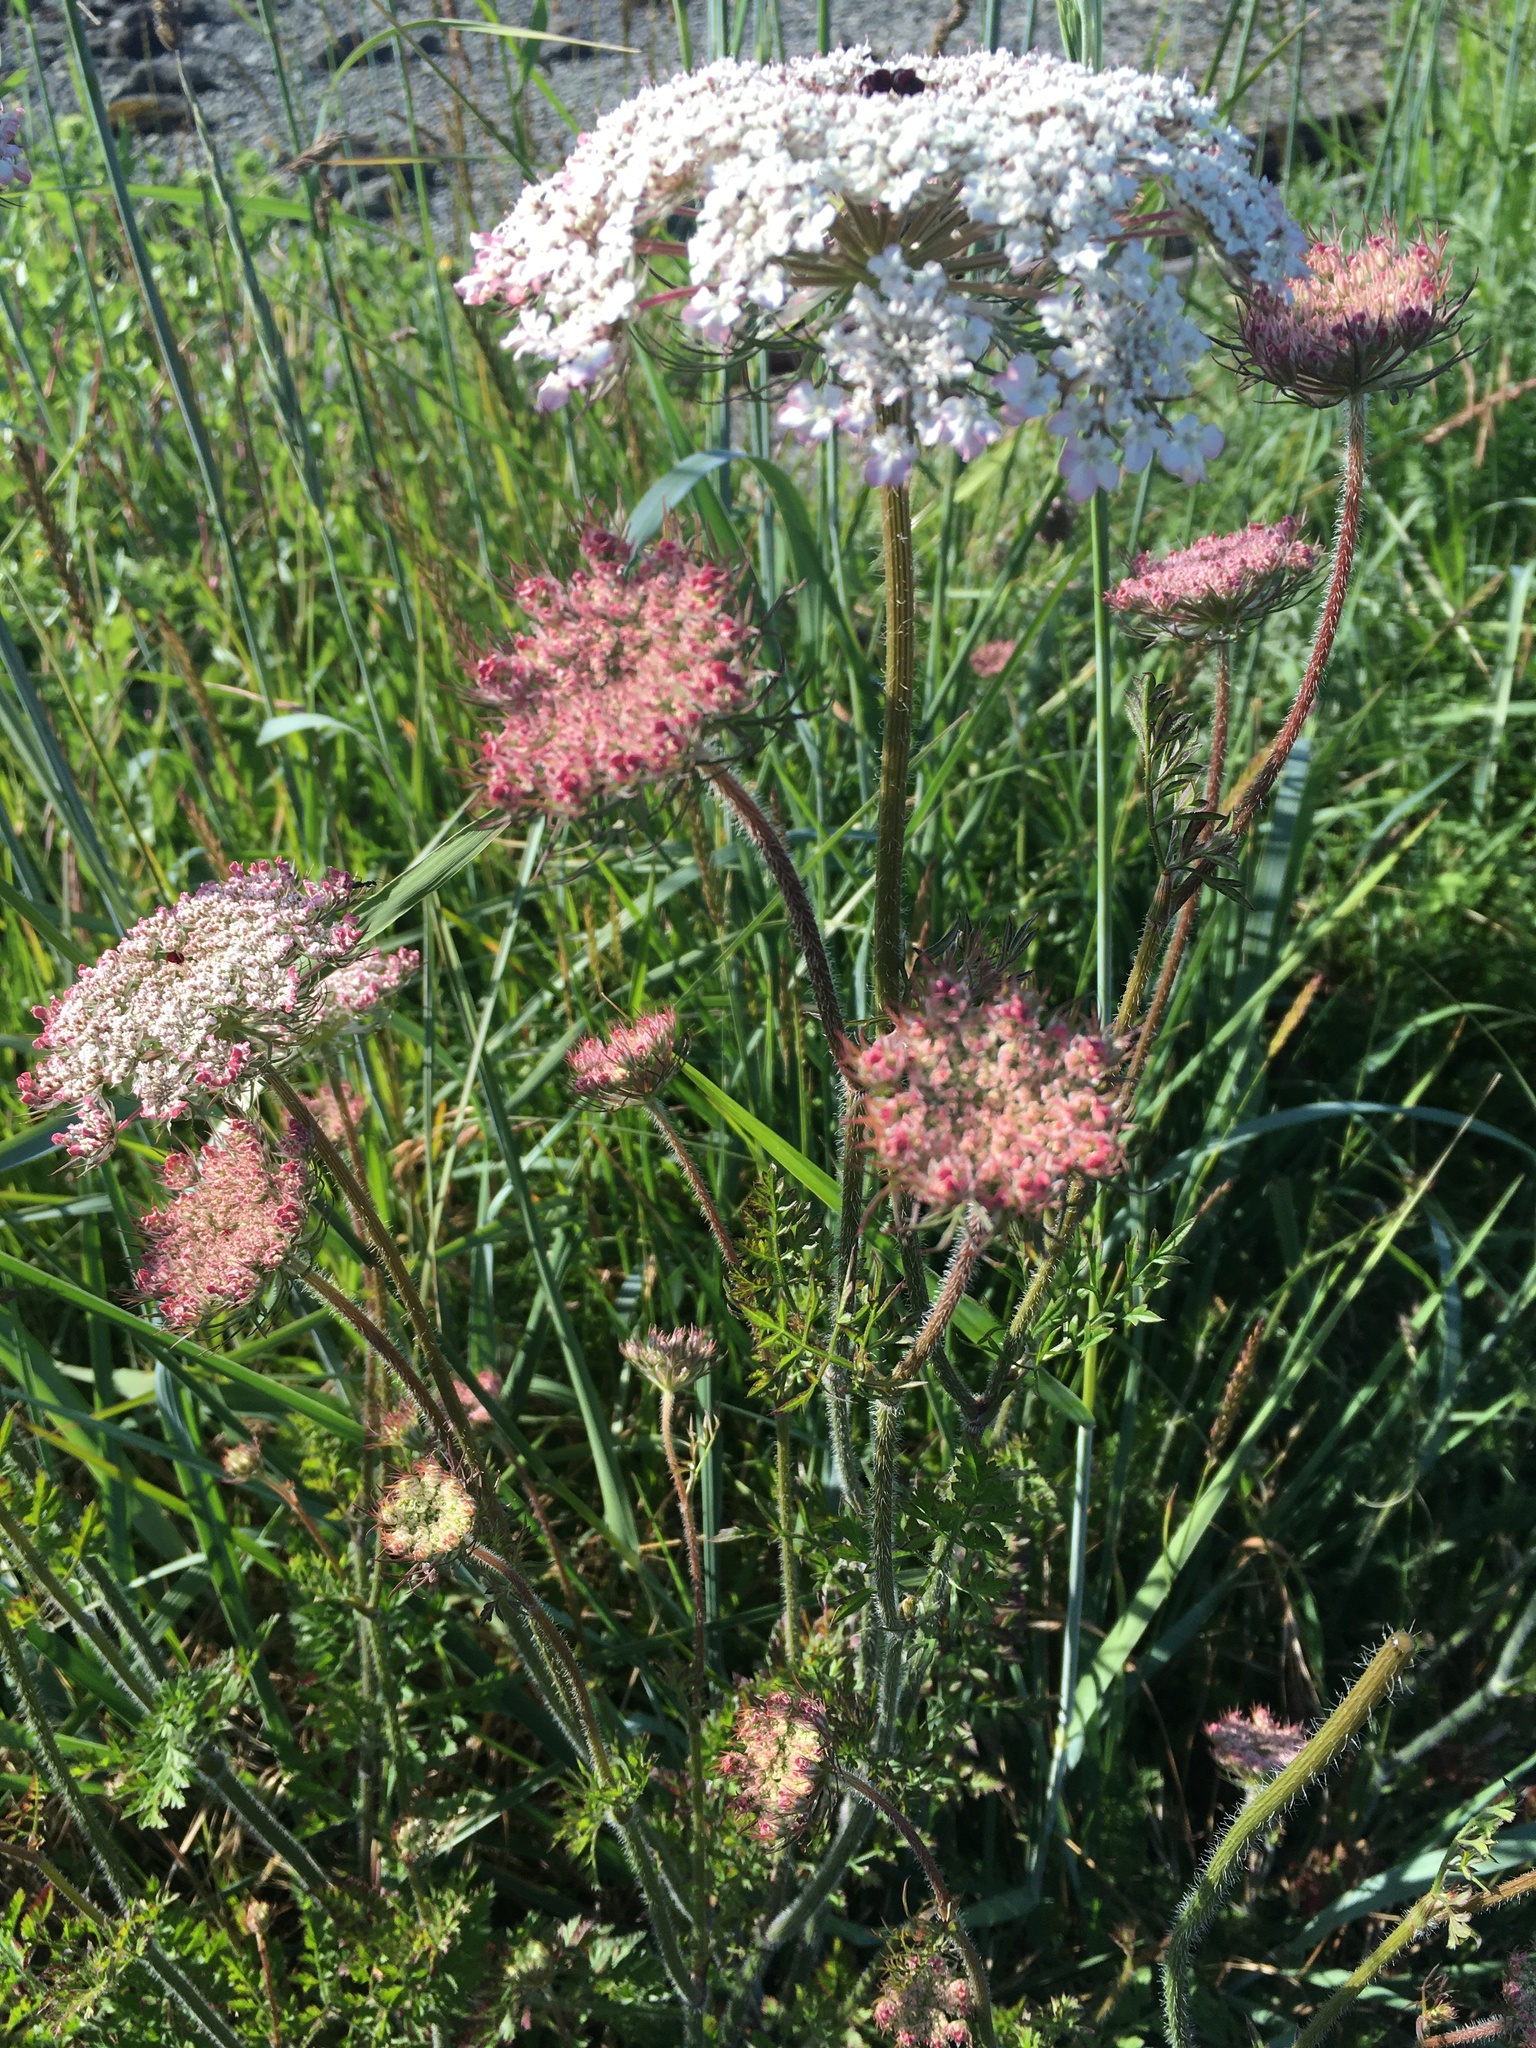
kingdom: Plantae
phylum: Tracheophyta
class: Magnoliopsida
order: Apiales
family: Apiaceae
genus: Daucus
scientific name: Daucus carota
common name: Wild carrot
